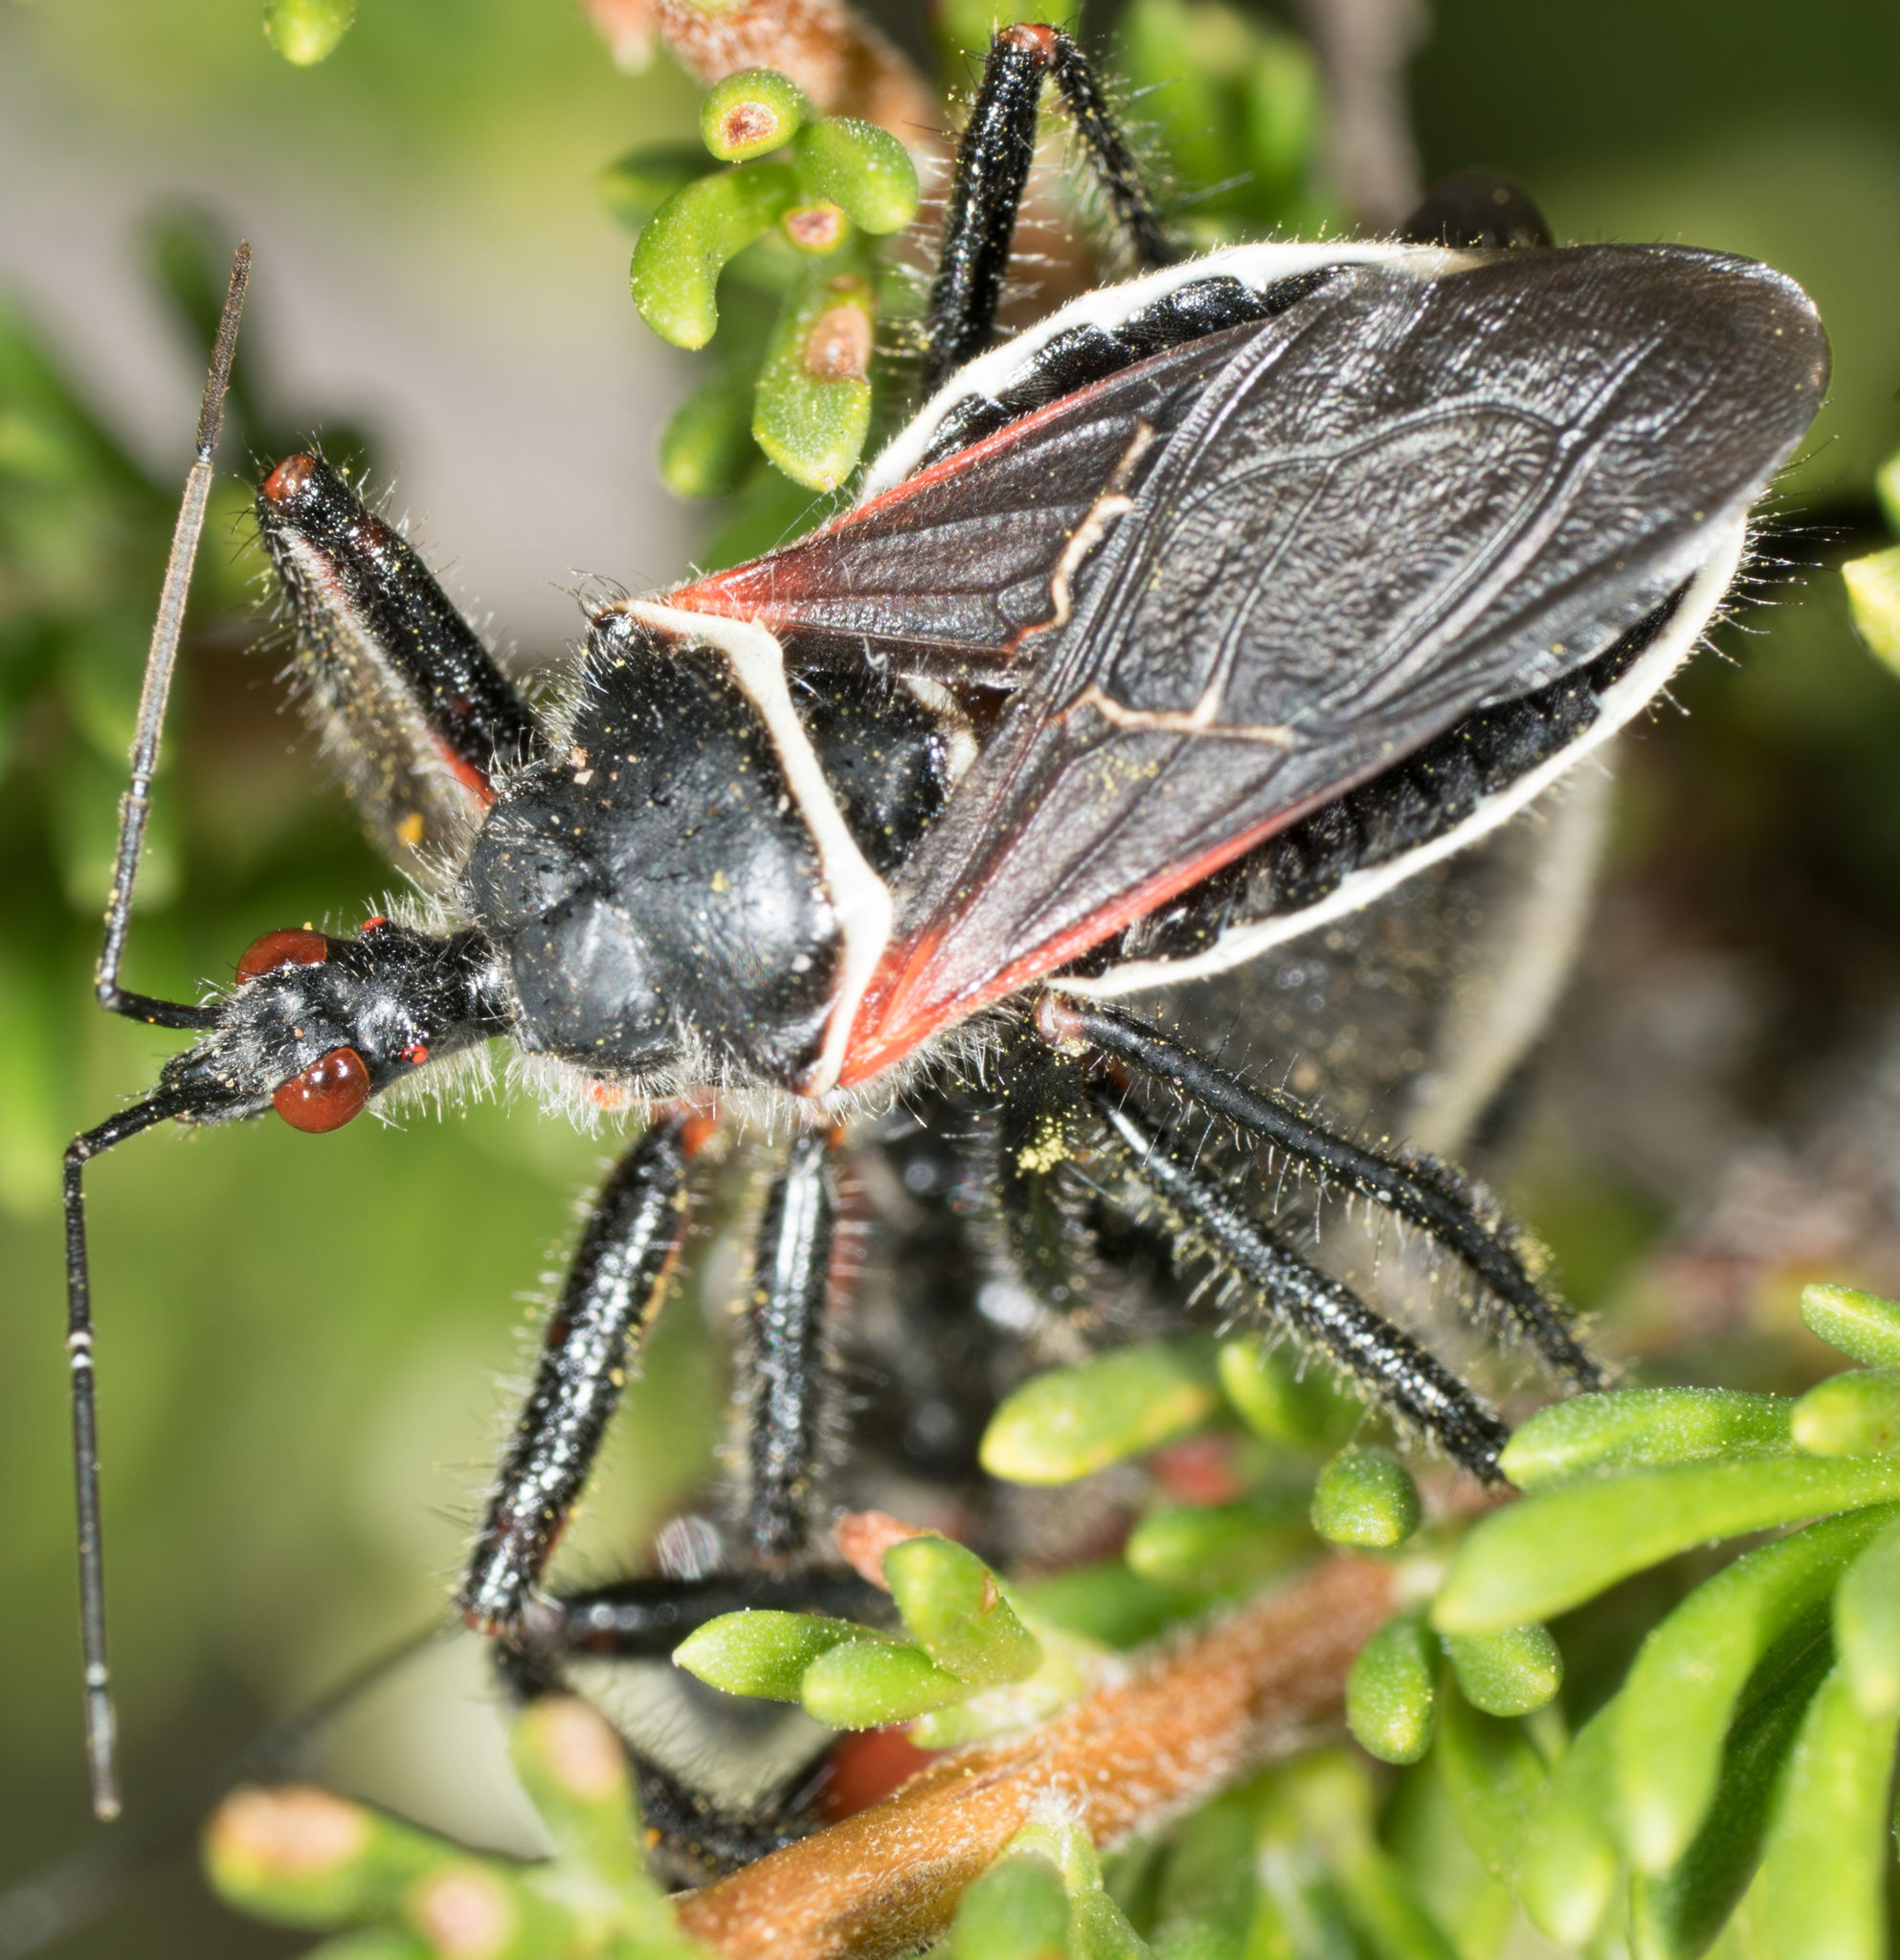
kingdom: Animalia
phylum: Arthropoda
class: Insecta
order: Hemiptera
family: Reduviidae
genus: Apiomerus
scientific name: Apiomerus californicus
